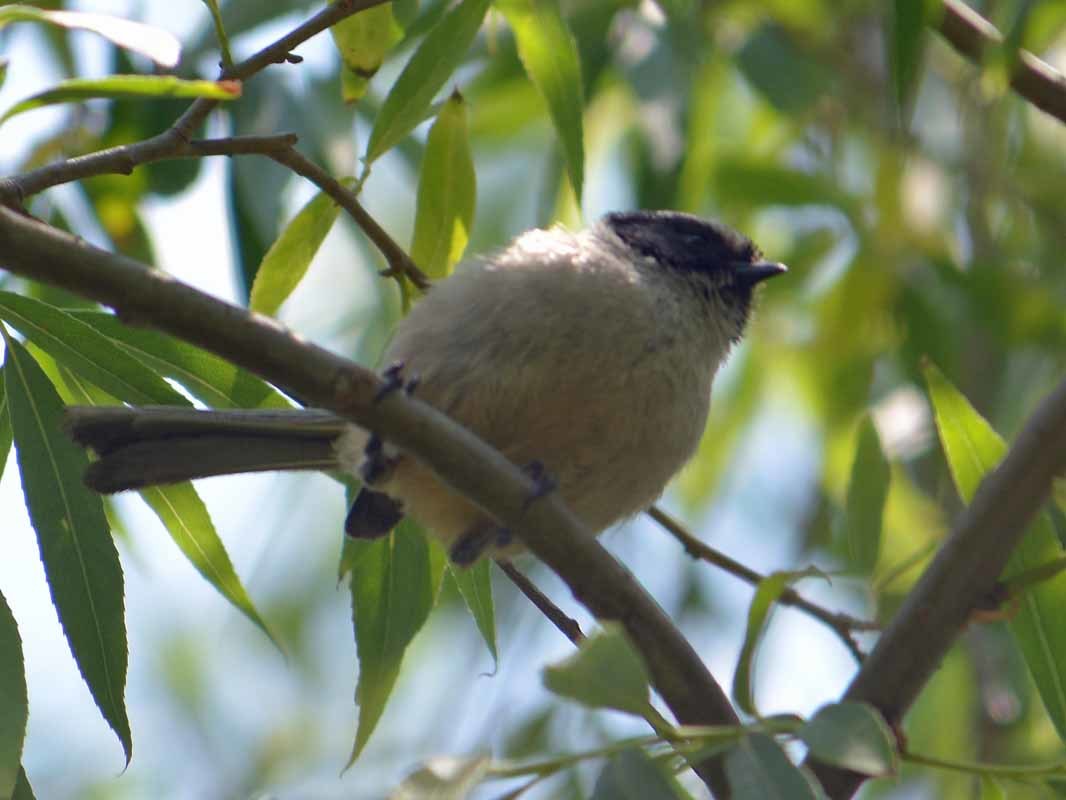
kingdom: Animalia
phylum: Chordata
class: Aves
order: Passeriformes
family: Aegithalidae
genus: Psaltriparus
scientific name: Psaltriparus minimus
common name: American bushtit
